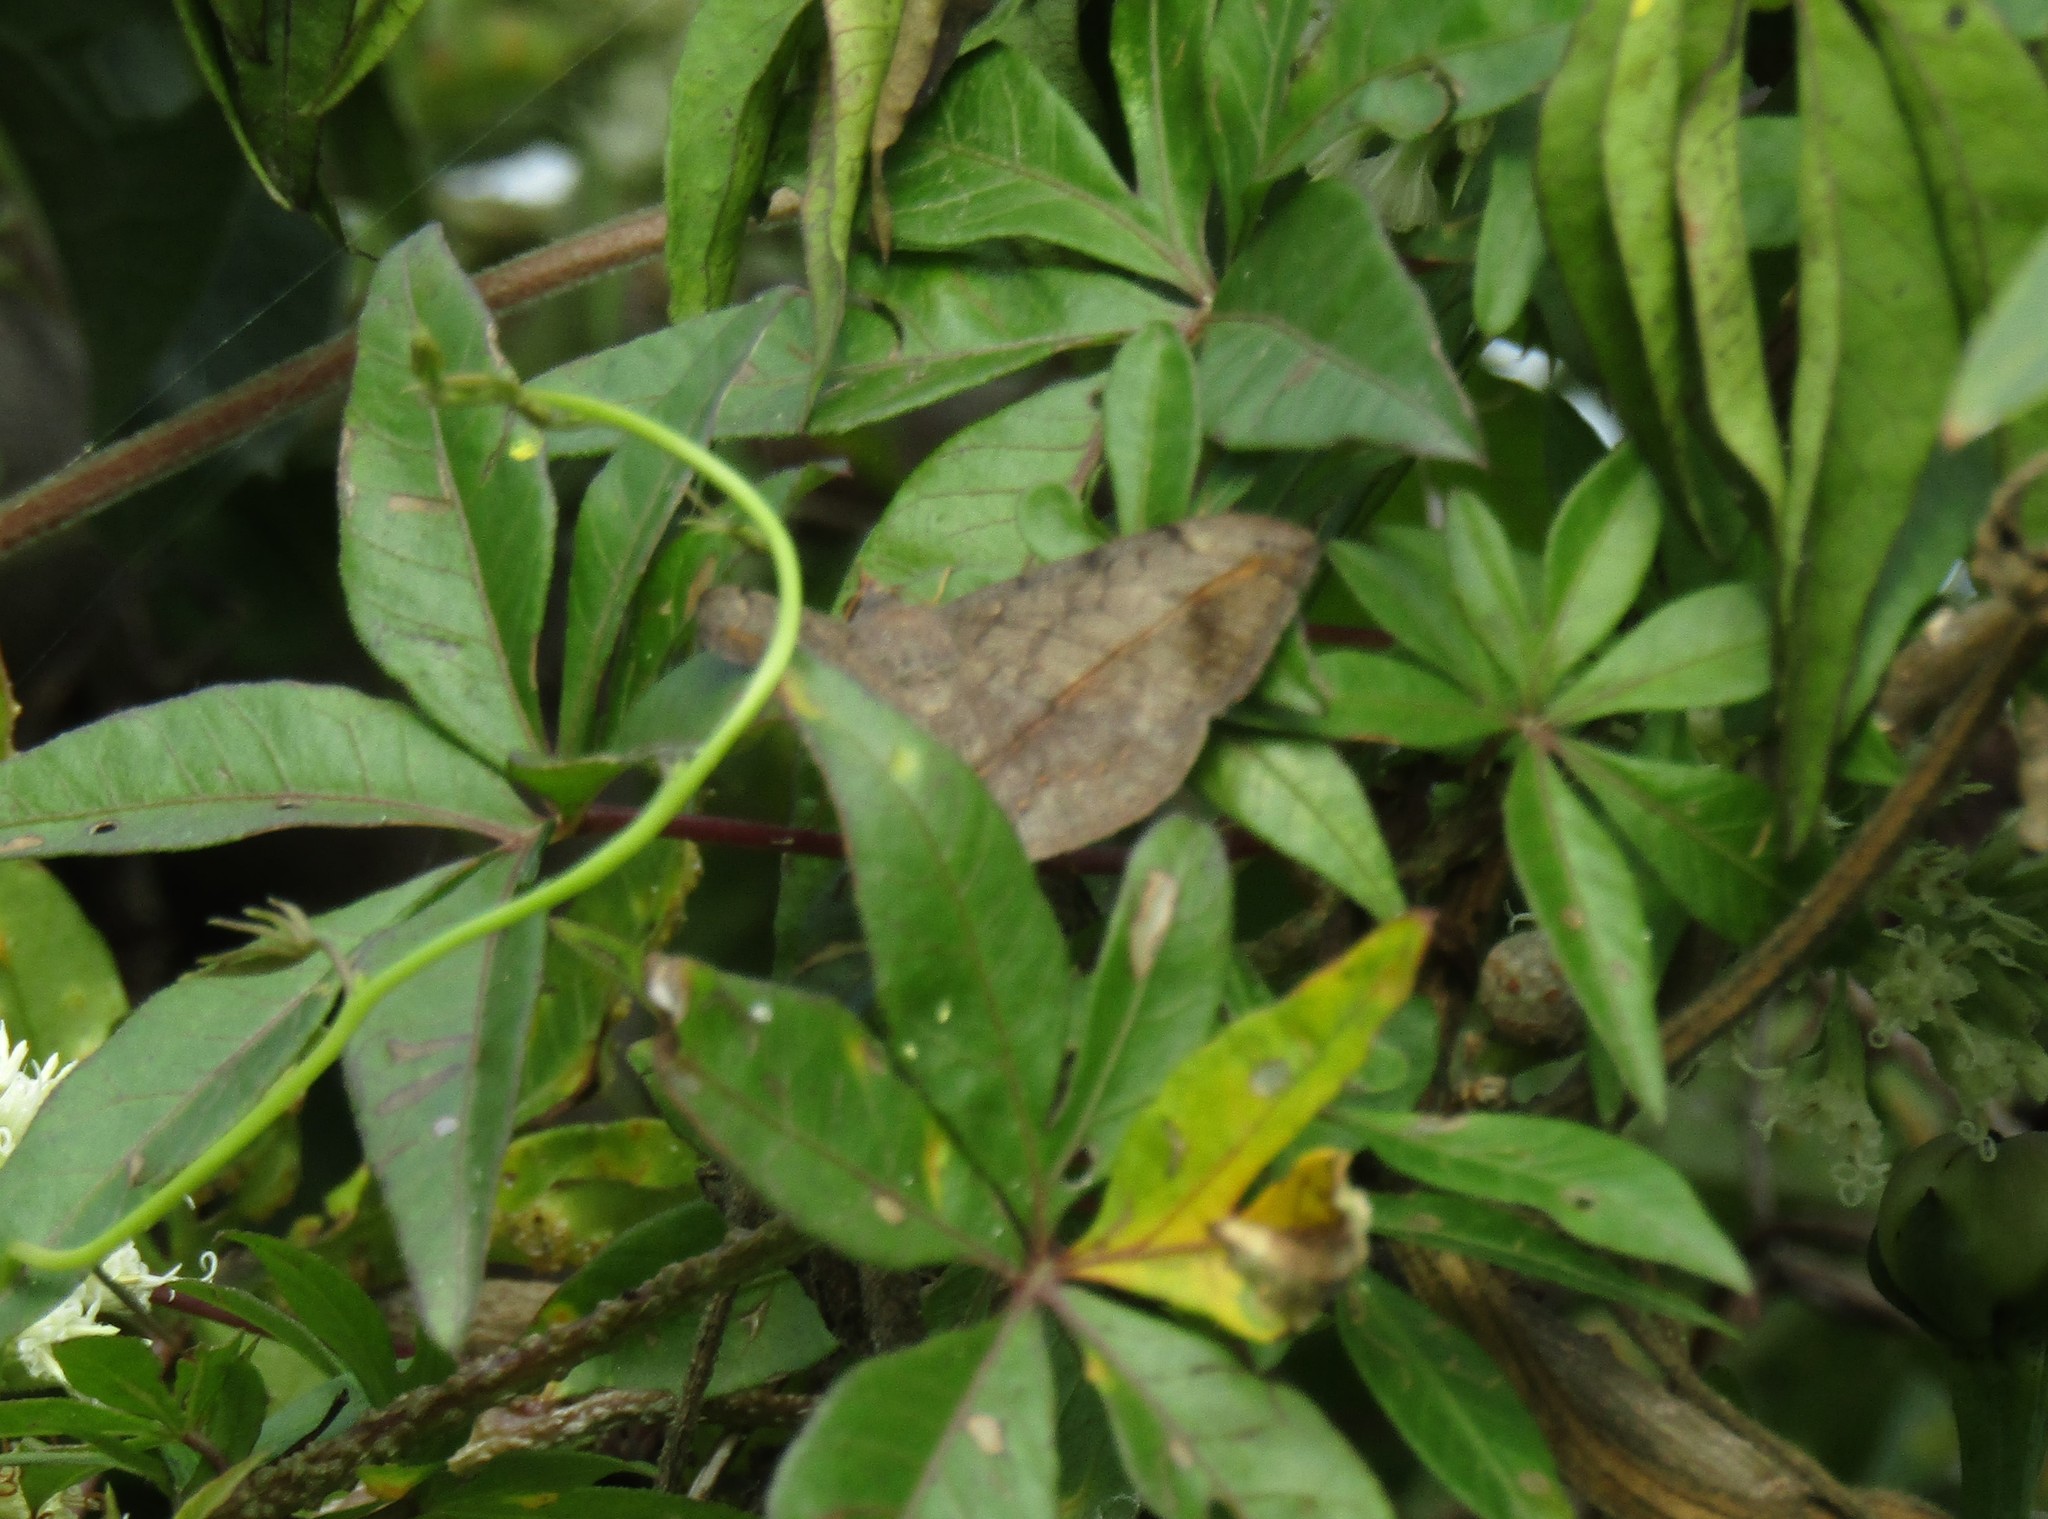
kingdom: Animalia
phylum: Arthropoda
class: Insecta
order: Lepidoptera
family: Nymphalidae
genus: Yphthimoides
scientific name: Yphthimoides celmis
